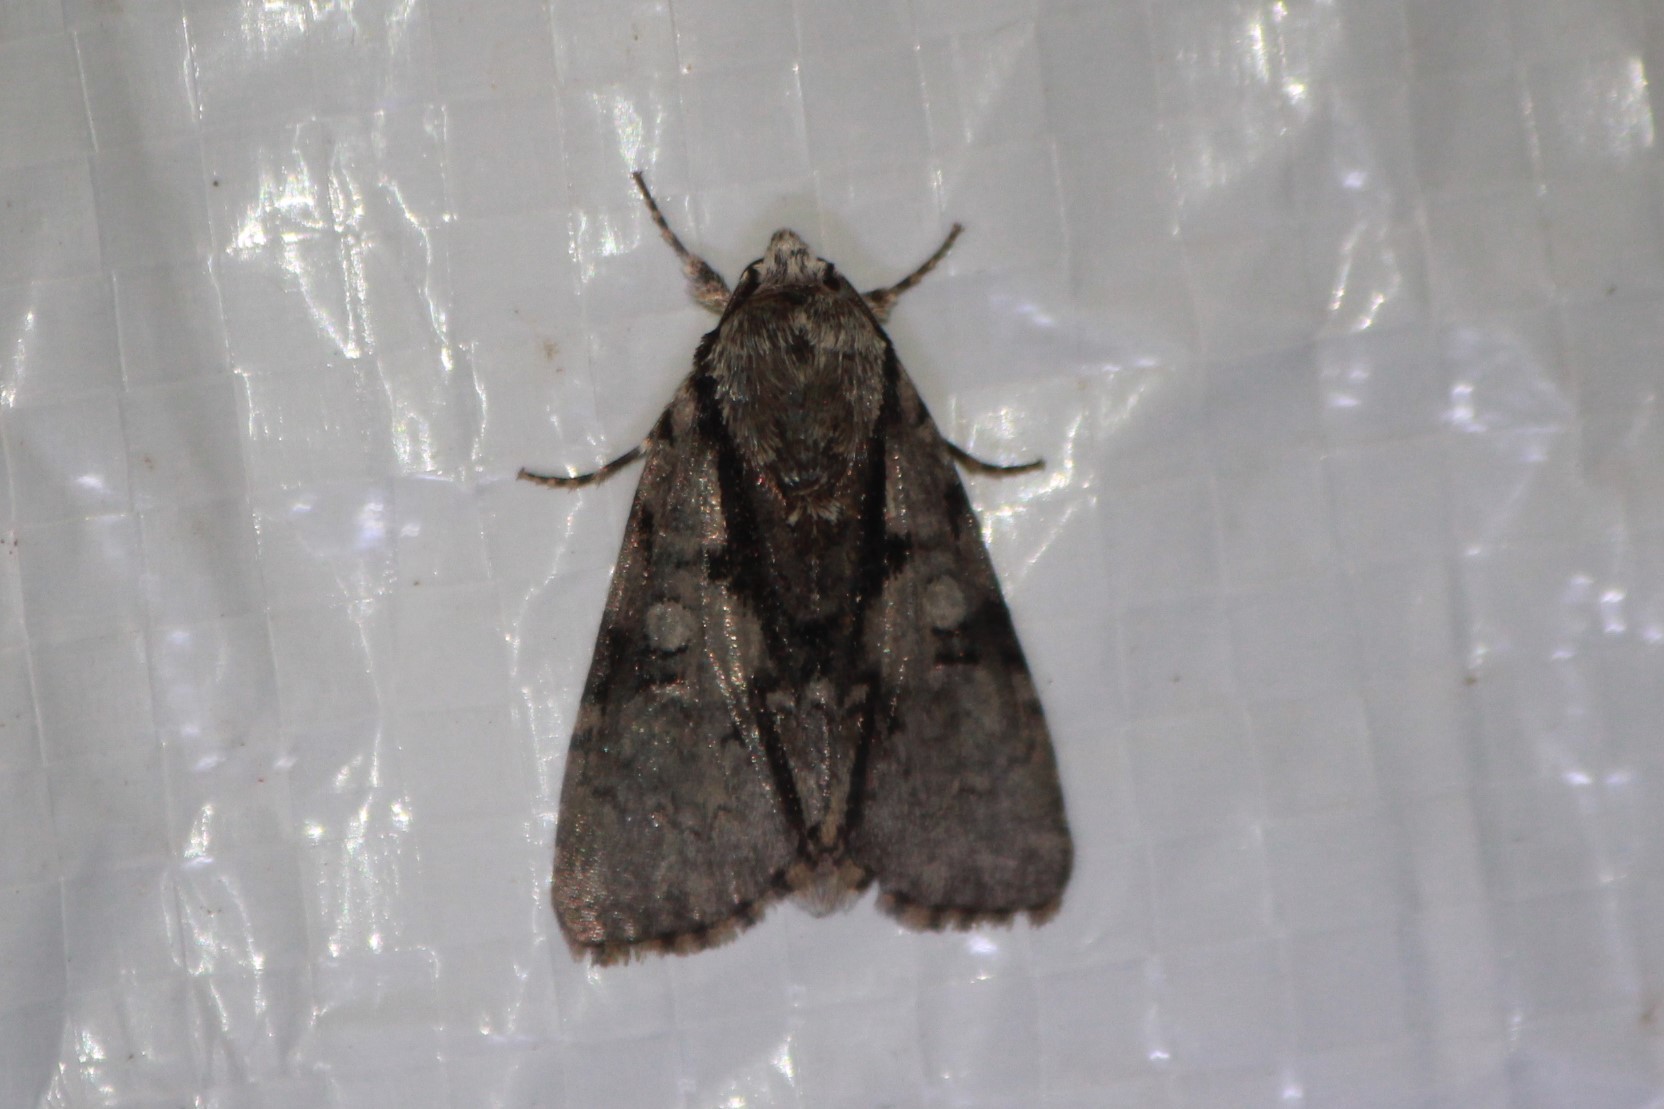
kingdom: Animalia
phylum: Arthropoda
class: Insecta
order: Lepidoptera
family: Noctuidae
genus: Acronicta
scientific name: Acronicta funeralis
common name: Funerary dagger
